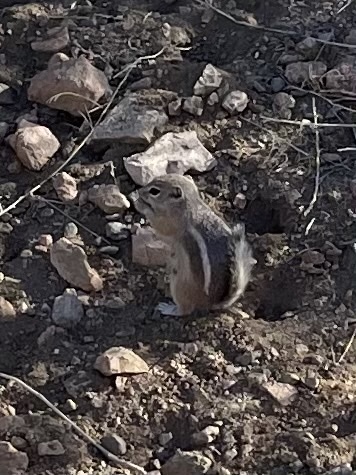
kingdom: Animalia
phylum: Chordata
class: Mammalia
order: Rodentia
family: Sciuridae
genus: Ammospermophilus
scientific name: Ammospermophilus leucurus
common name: White-tailed antelope squirrel
